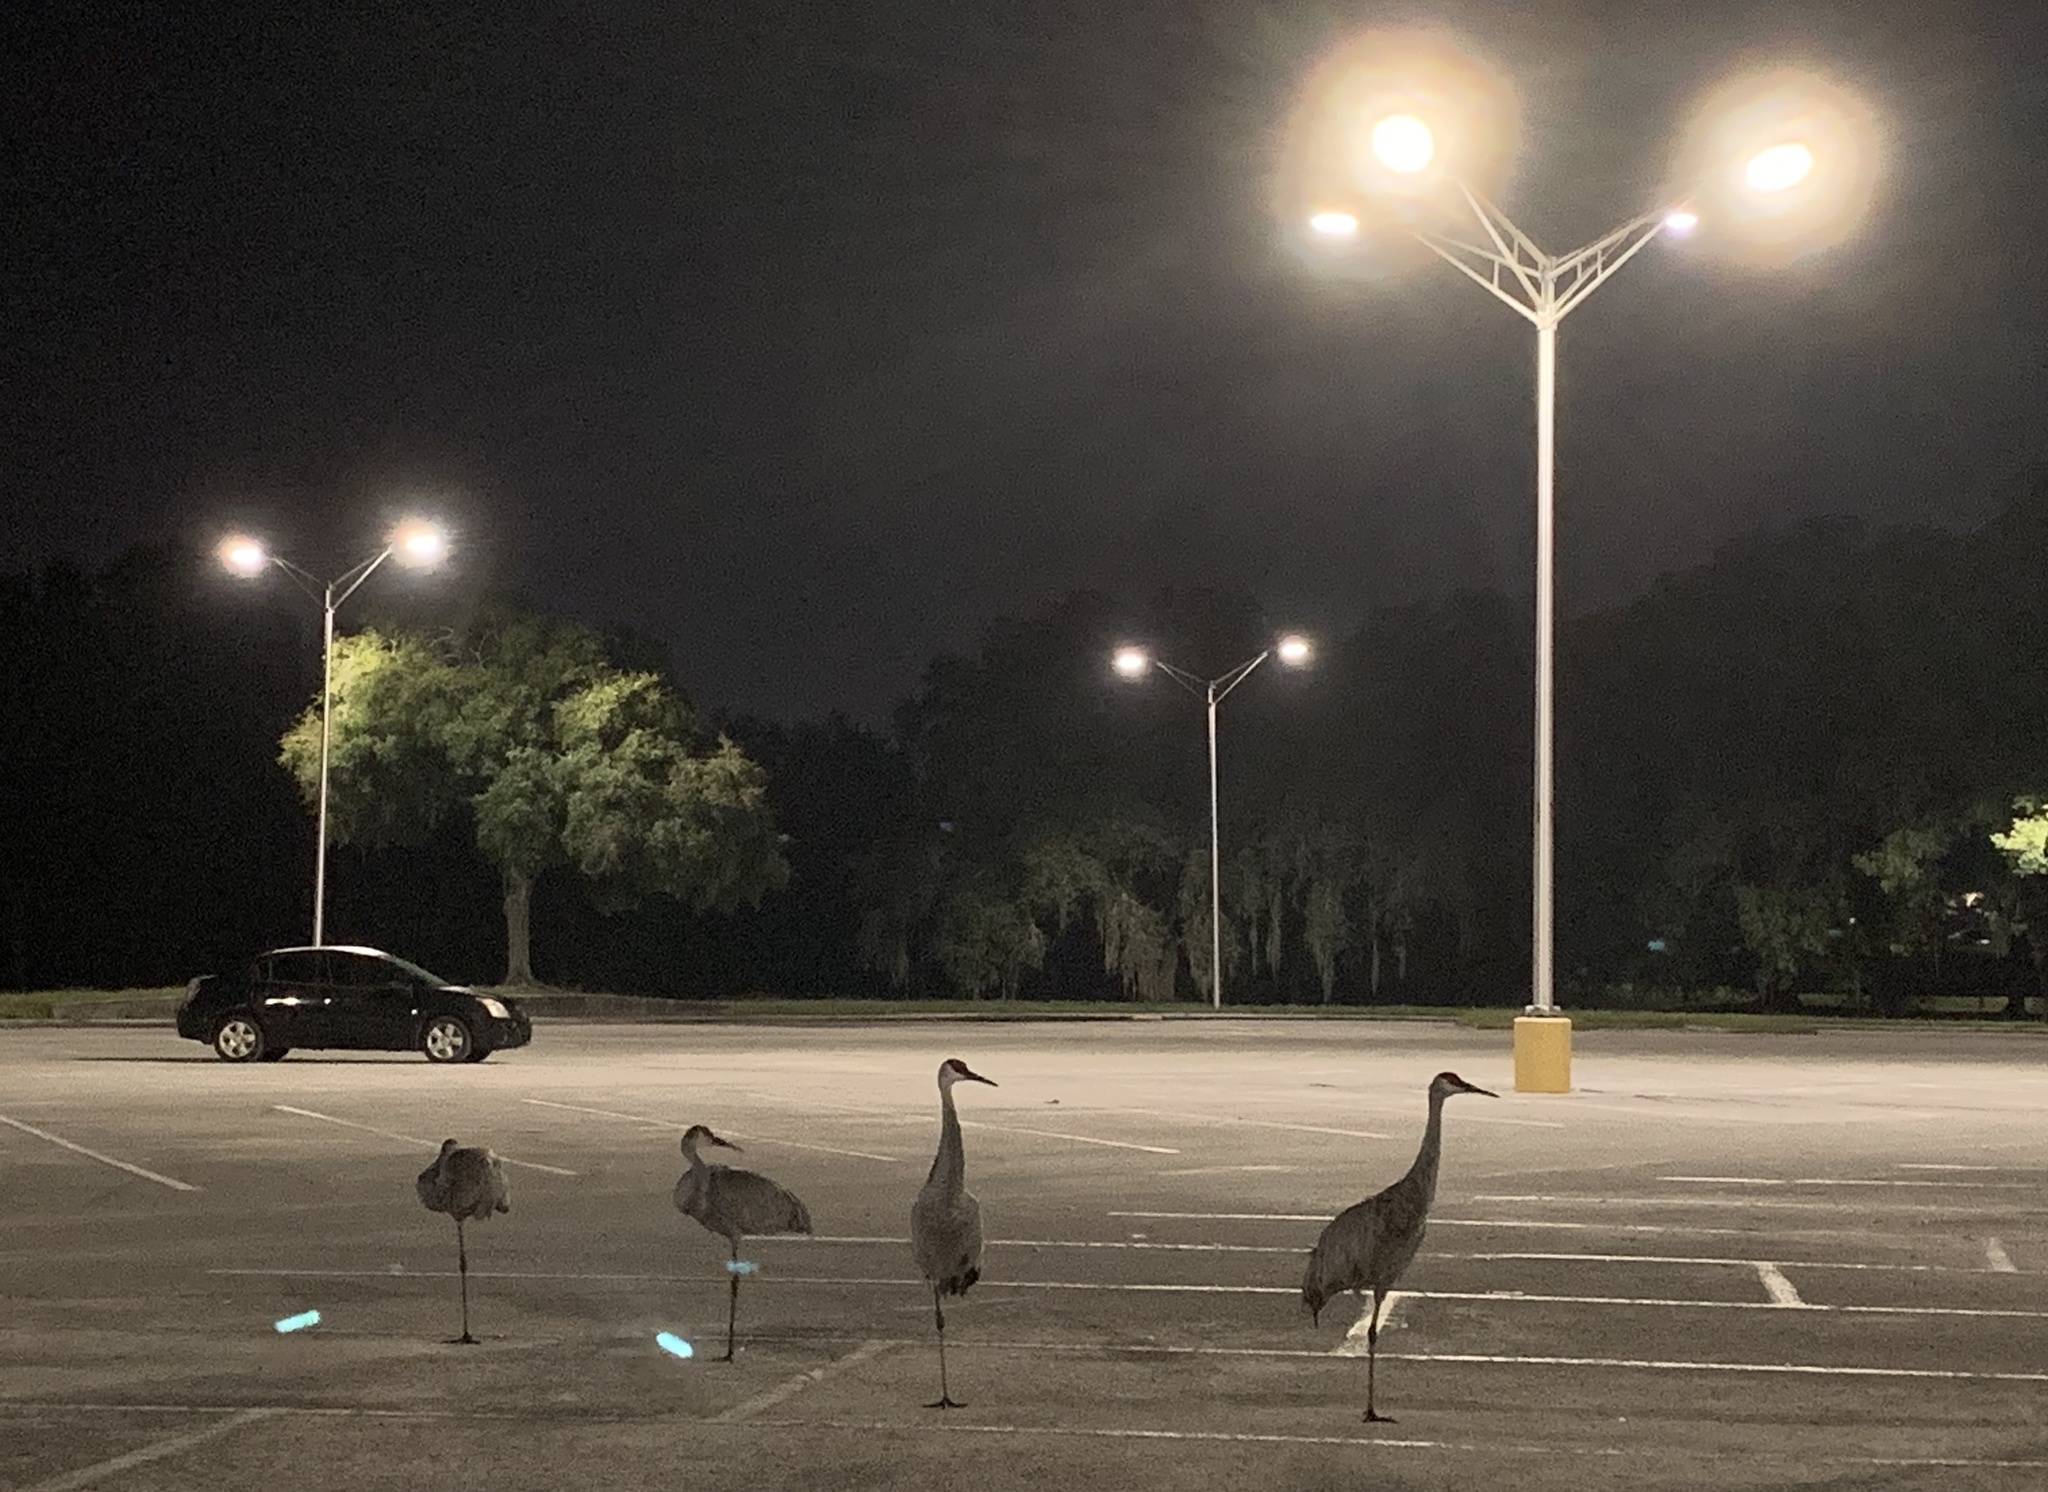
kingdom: Animalia
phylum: Chordata
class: Aves
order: Gruiformes
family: Gruidae
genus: Grus
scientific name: Grus canadensis
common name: Sandhill crane
